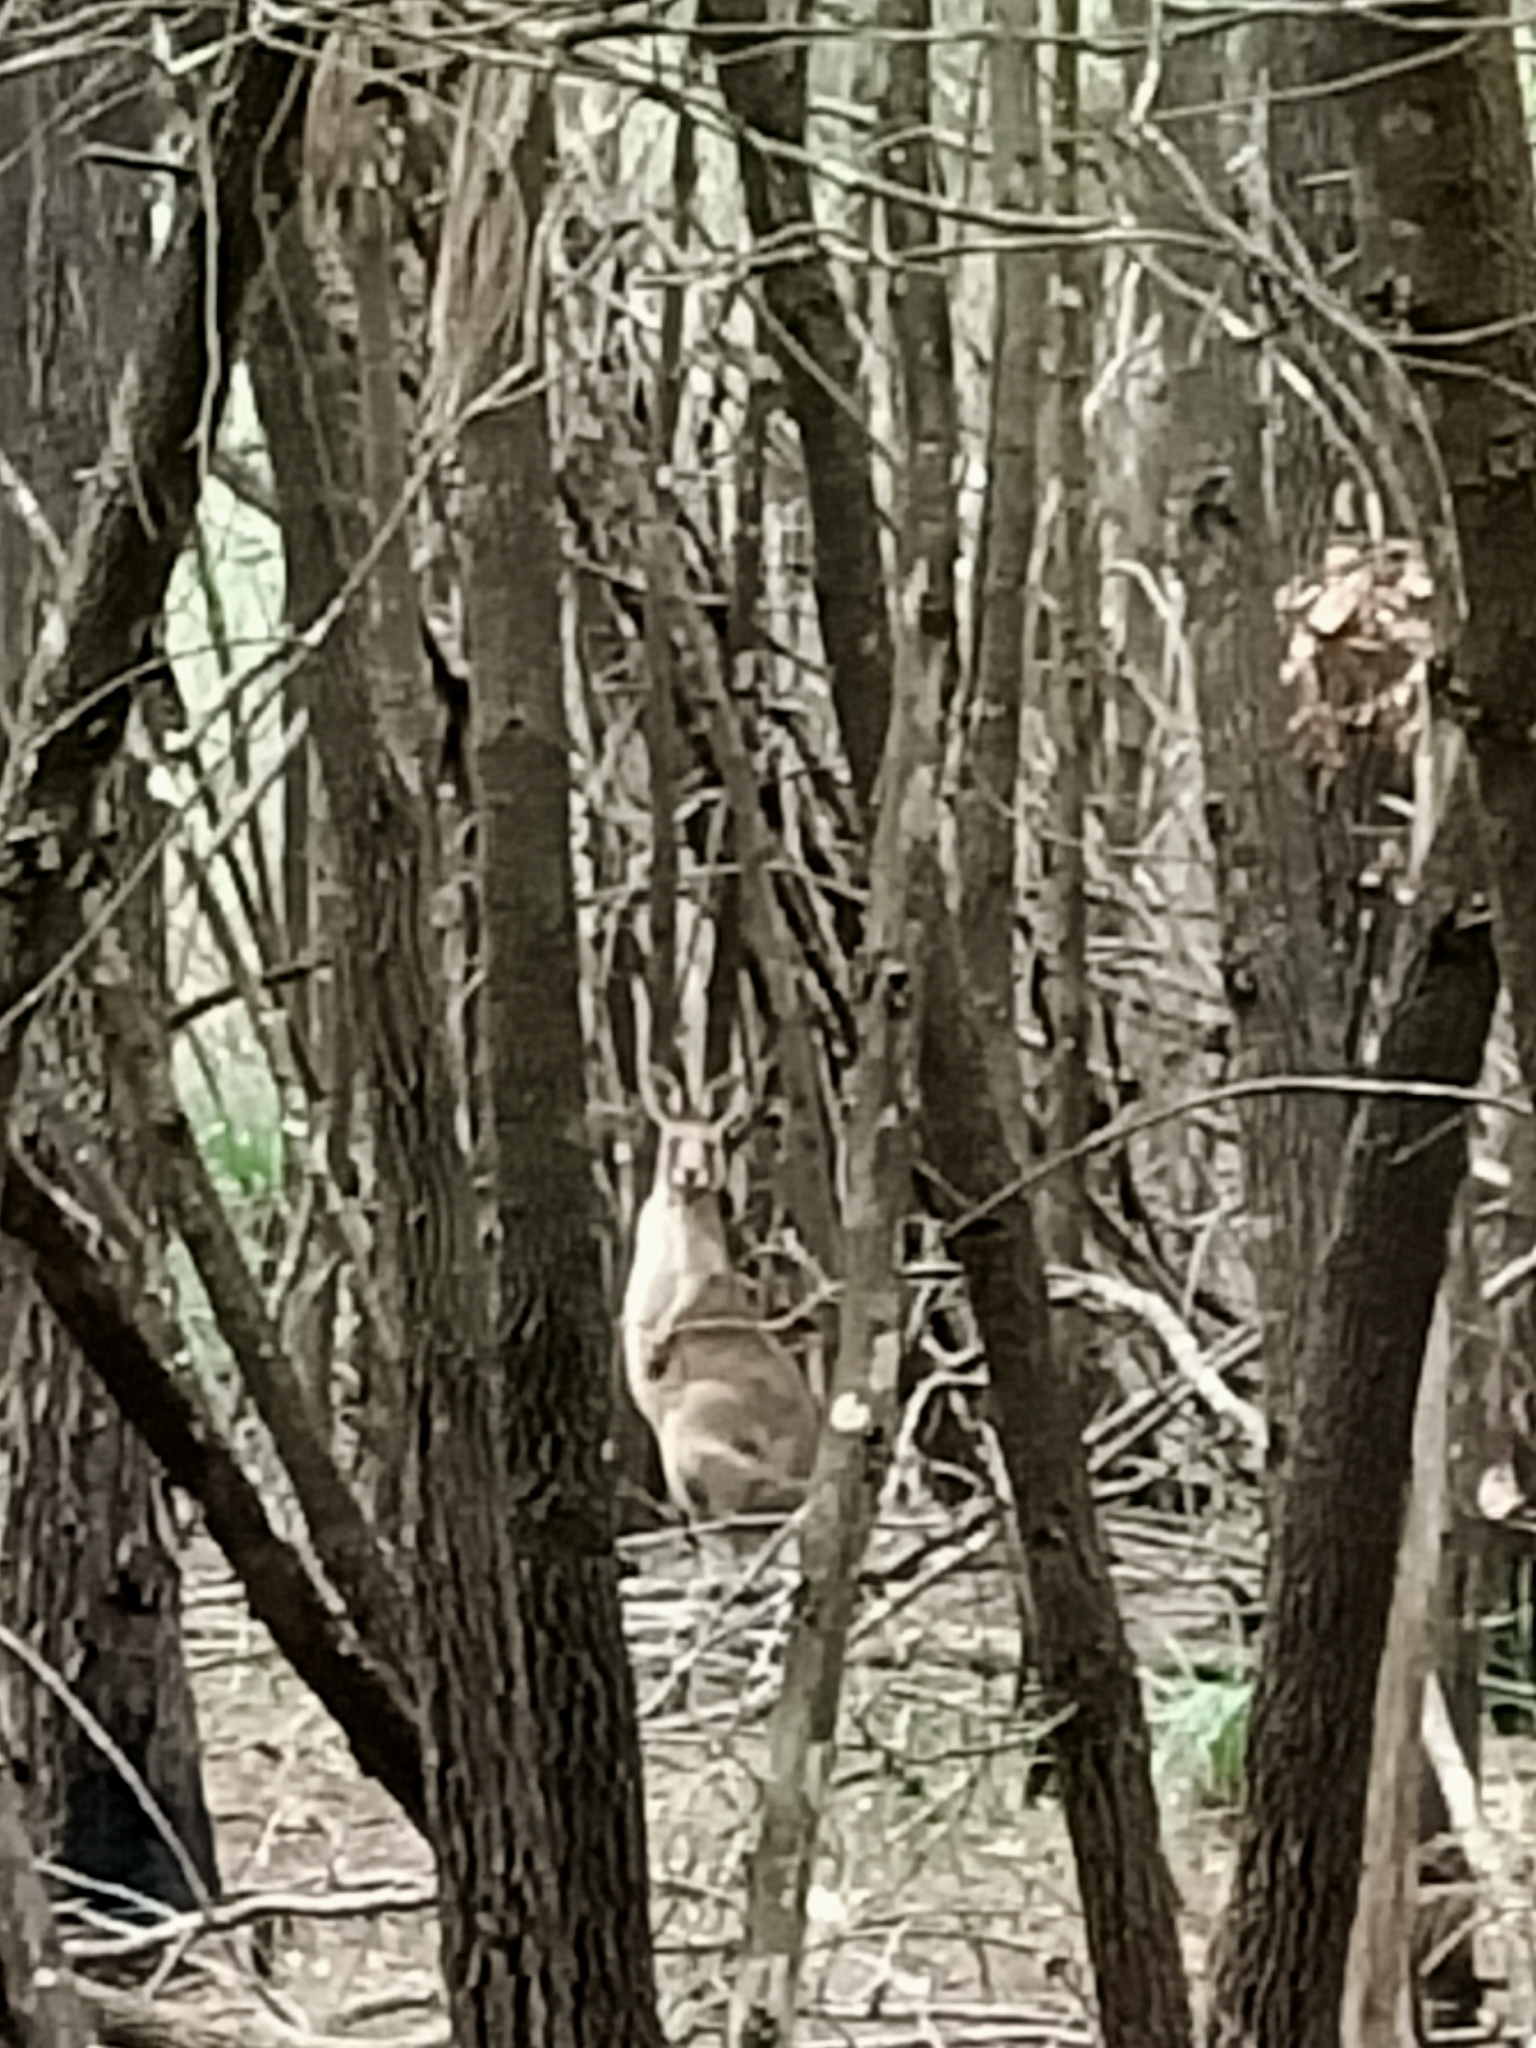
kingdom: Animalia
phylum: Chordata
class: Mammalia
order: Diprotodontia
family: Macropodidae
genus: Macropus
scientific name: Macropus giganteus
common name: Eastern grey kangaroo
